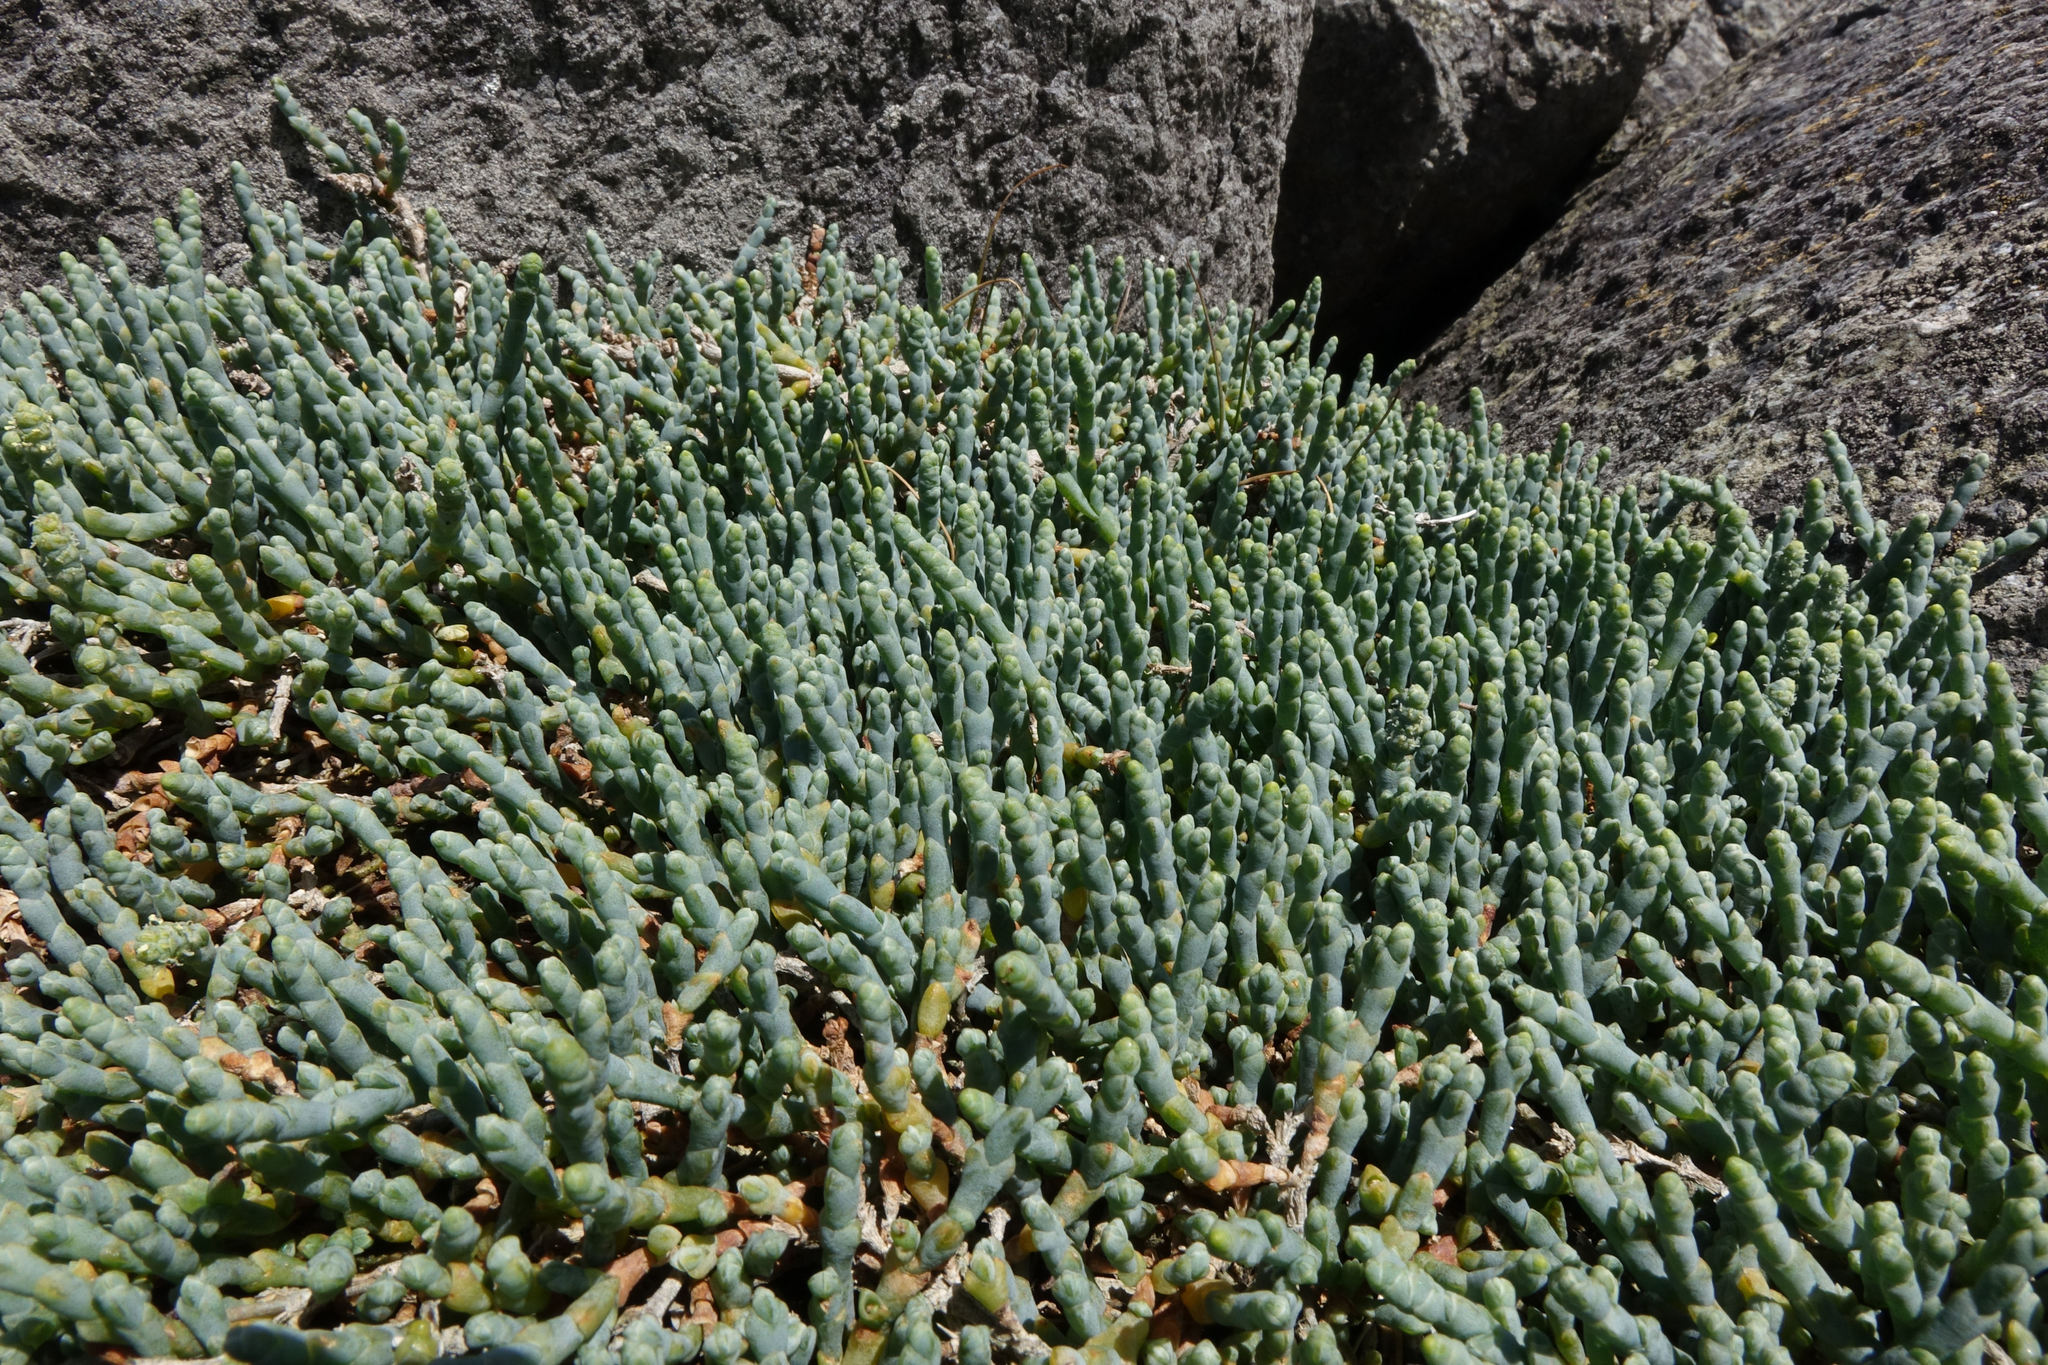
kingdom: Plantae
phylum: Tracheophyta
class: Magnoliopsida
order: Caryophyllales
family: Amaranthaceae
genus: Salicornia
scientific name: Salicornia quinqueflora
